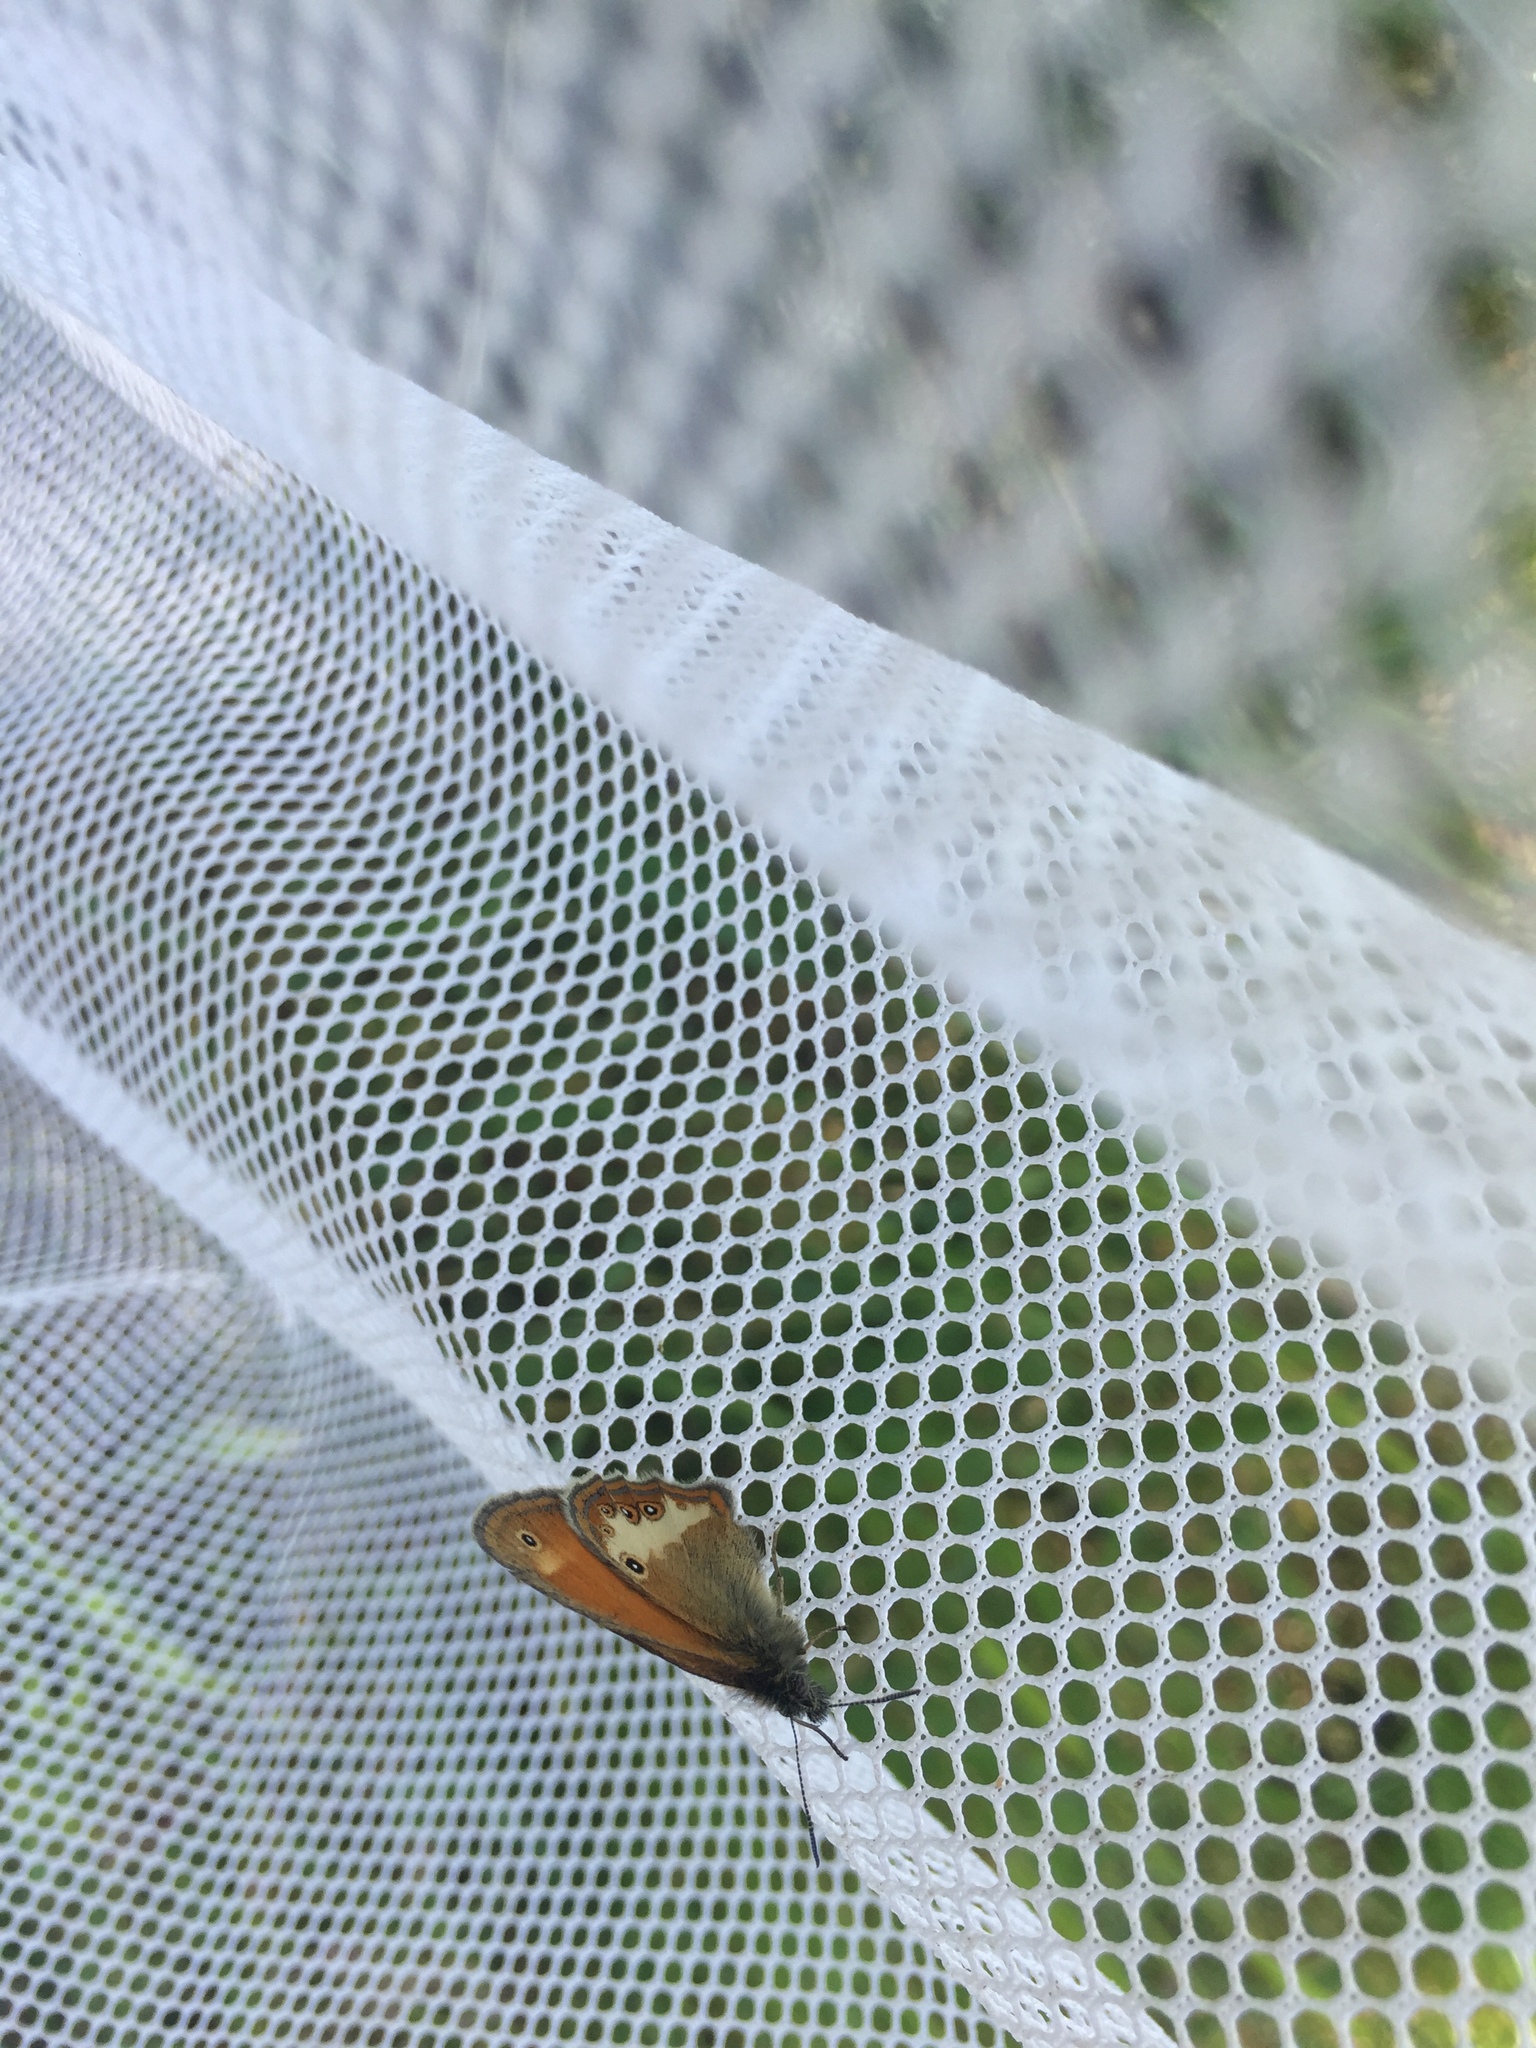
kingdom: Animalia
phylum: Arthropoda
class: Insecta
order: Lepidoptera
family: Nymphalidae
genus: Coenonympha
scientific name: Coenonympha arcania
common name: Pearly heath
